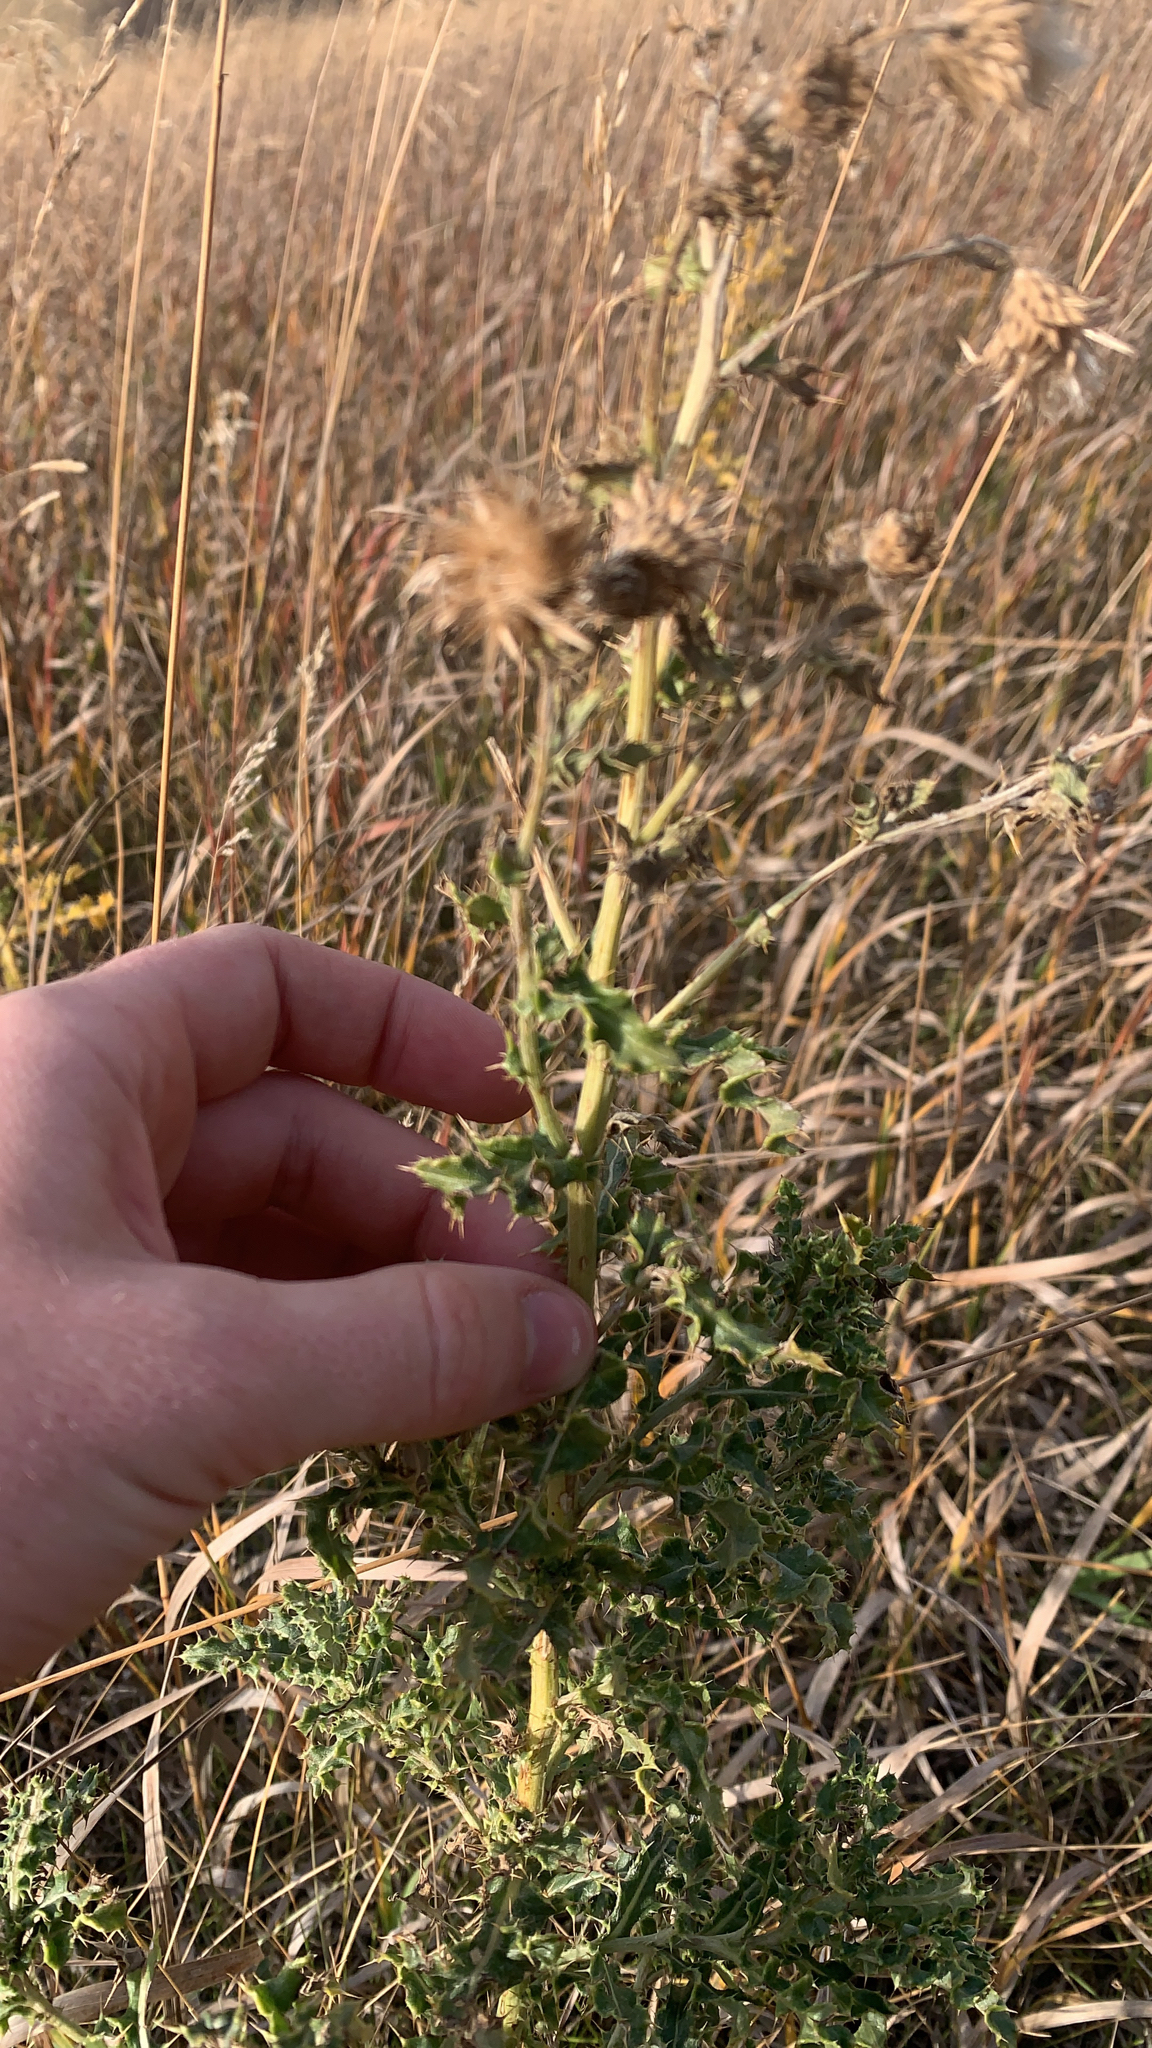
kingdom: Plantae
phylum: Tracheophyta
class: Magnoliopsida
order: Asterales
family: Asteraceae
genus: Cirsium
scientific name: Cirsium arvense
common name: Creeping thistle
